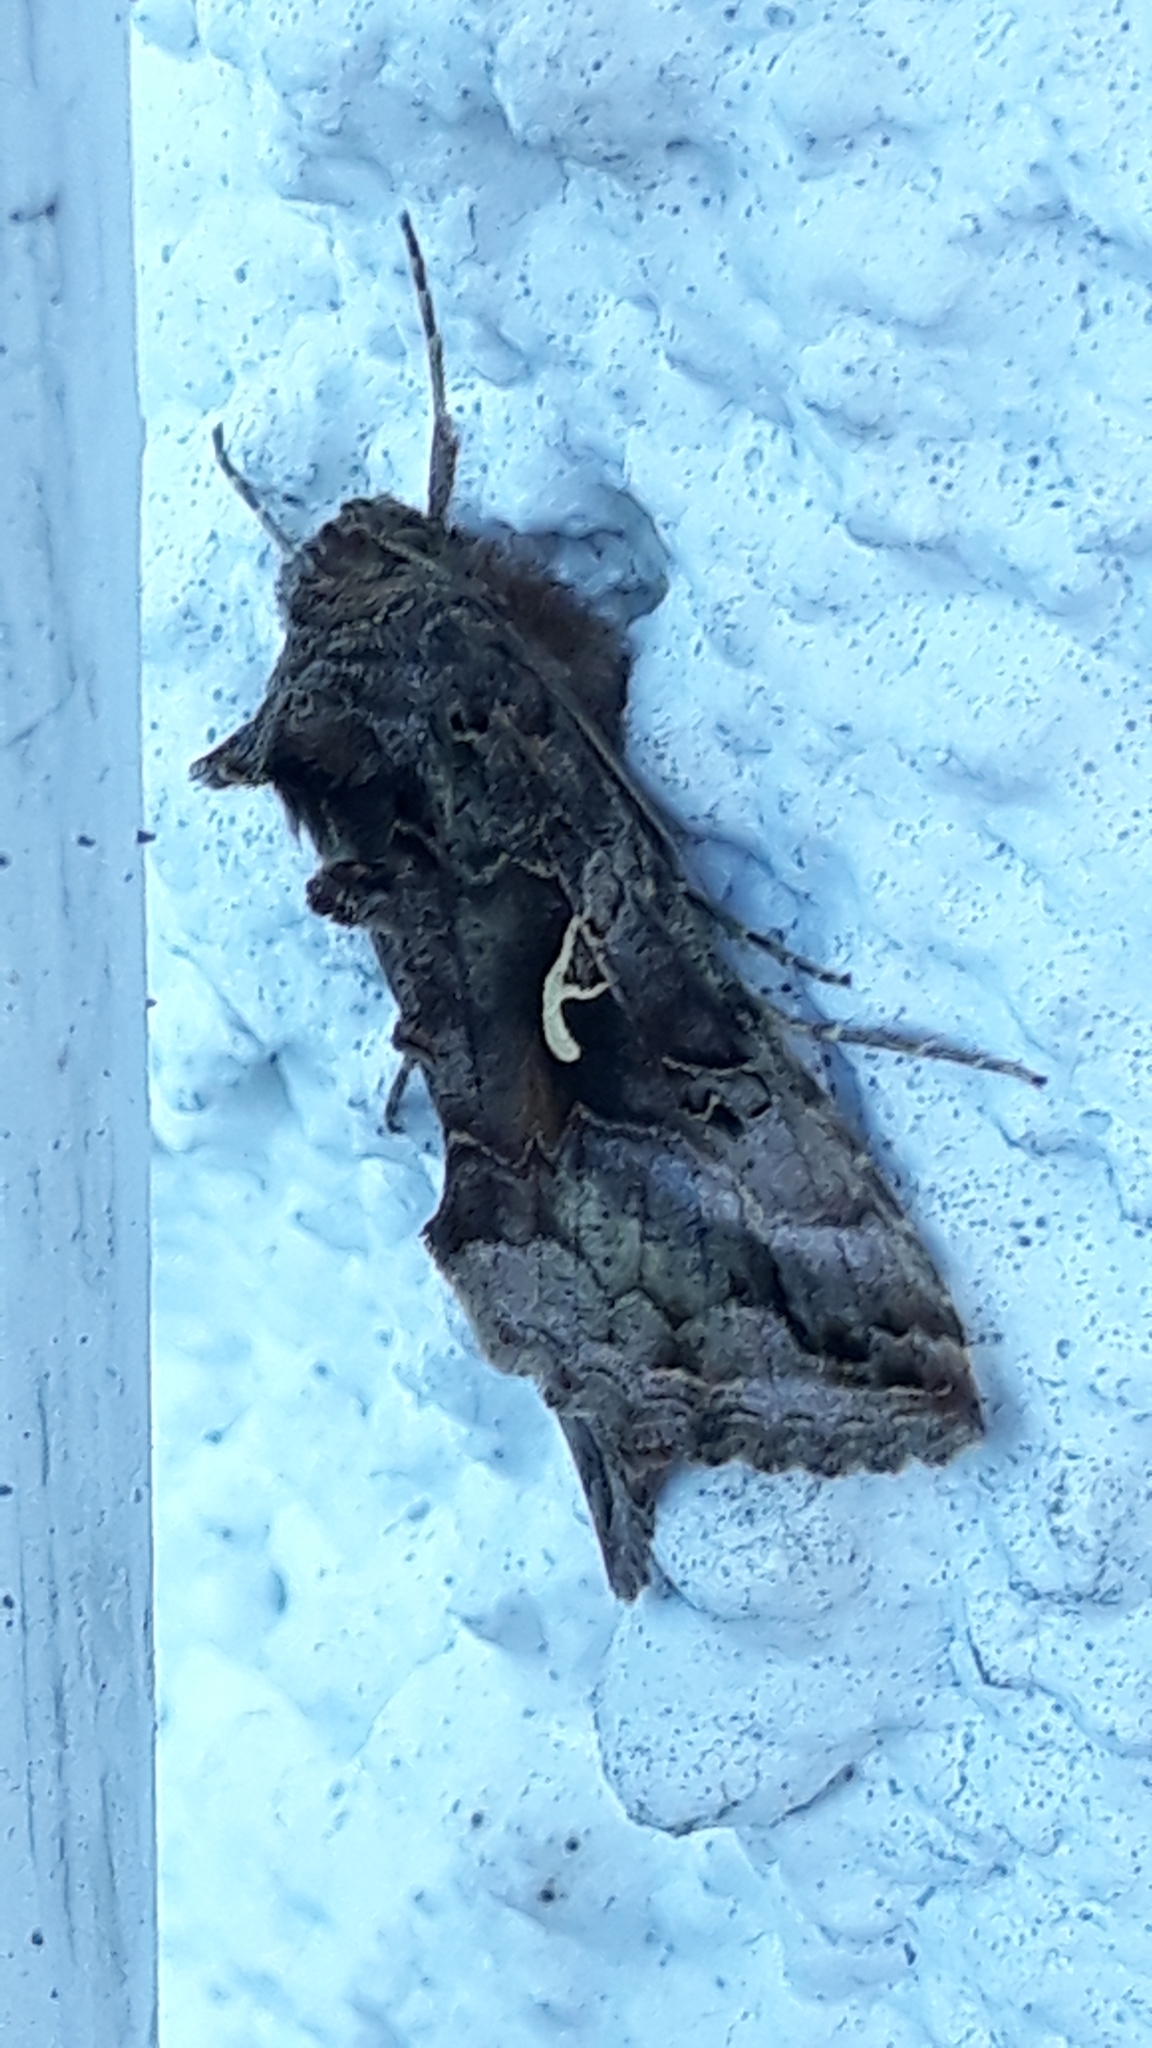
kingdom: Animalia
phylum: Arthropoda
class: Insecta
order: Lepidoptera
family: Noctuidae
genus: Autographa
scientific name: Autographa gamma
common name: Silver y
